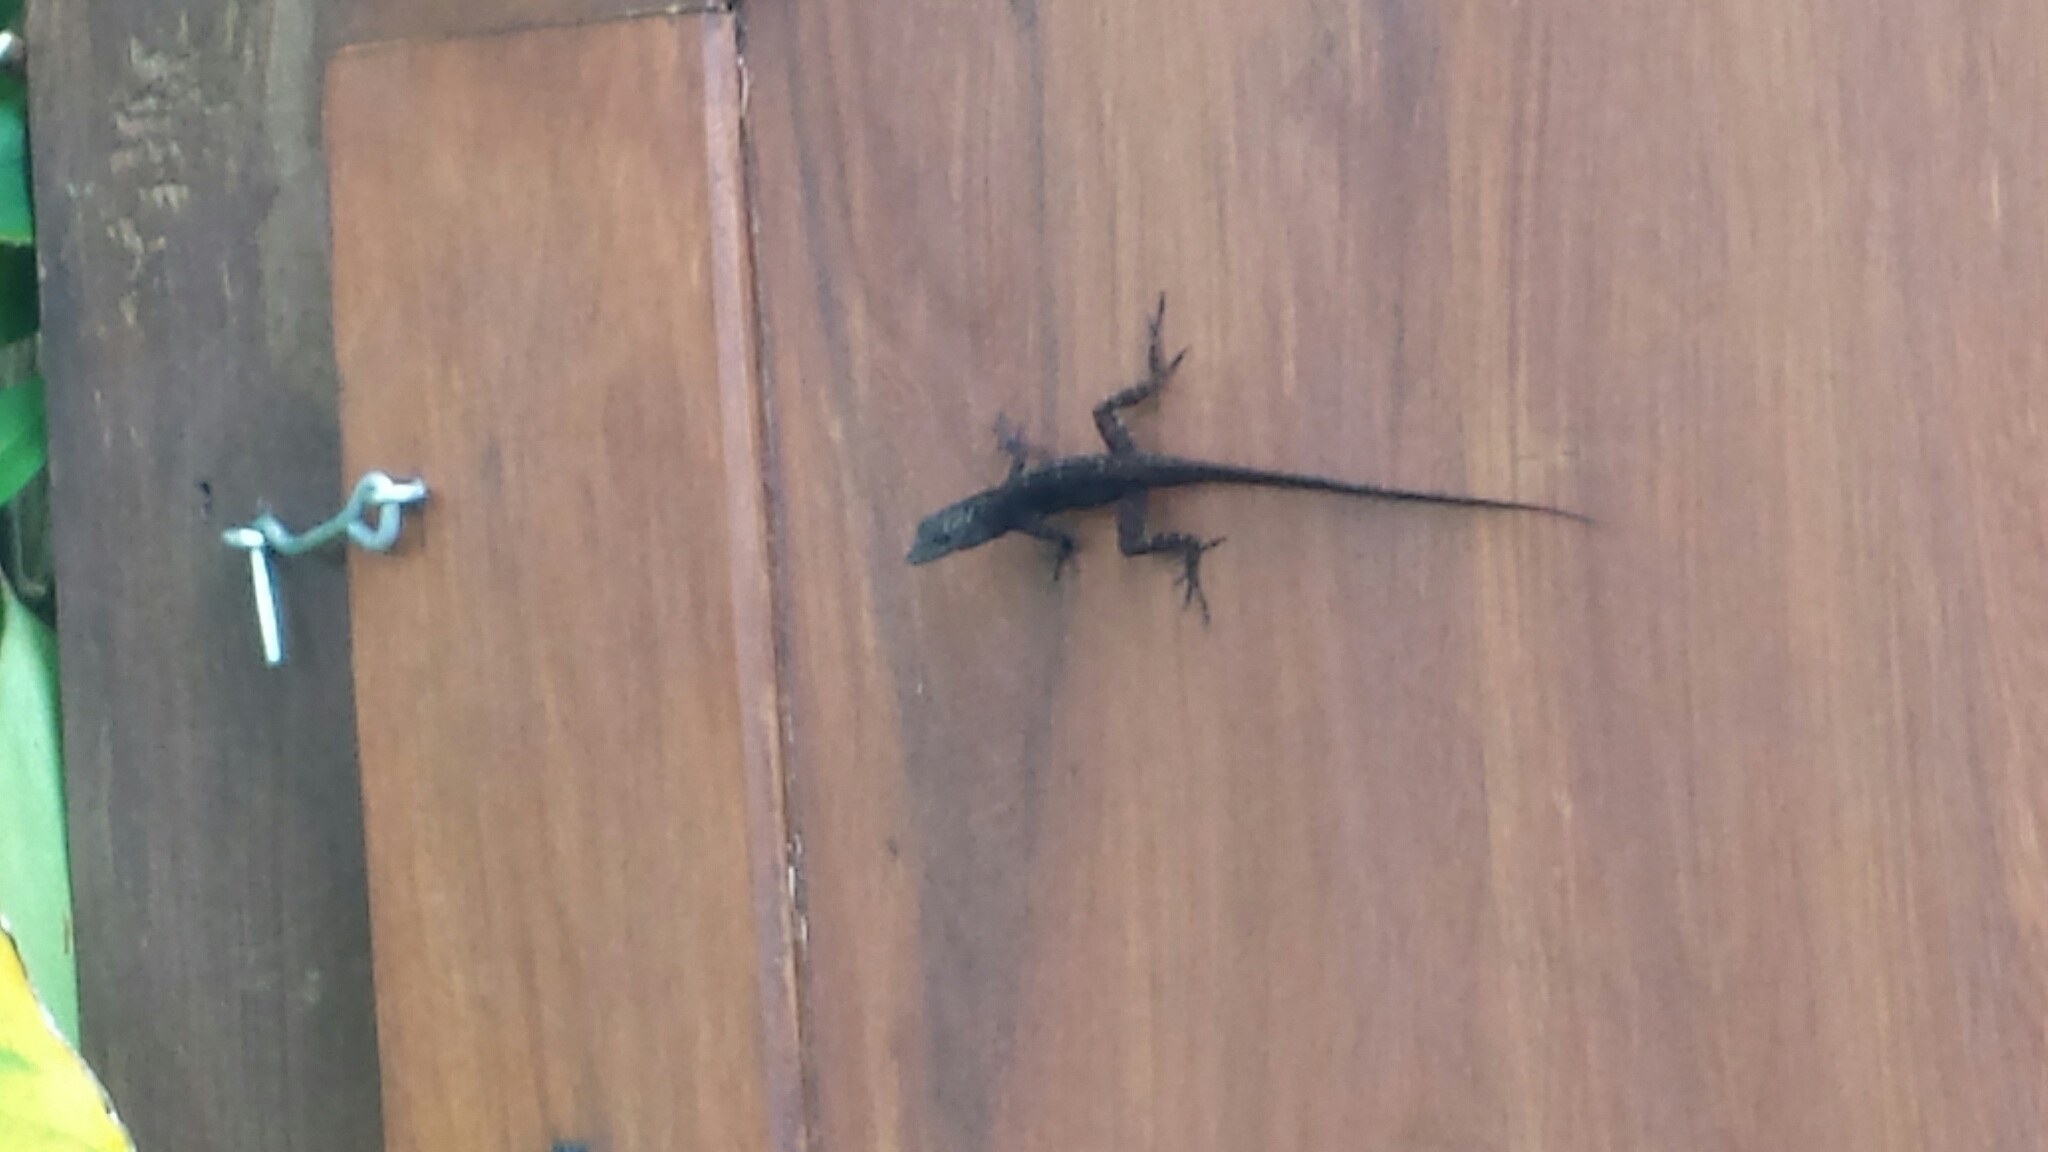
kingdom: Animalia
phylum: Chordata
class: Squamata
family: Dactyloidae
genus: Anolis
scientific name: Anolis sagrei
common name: Brown anole
